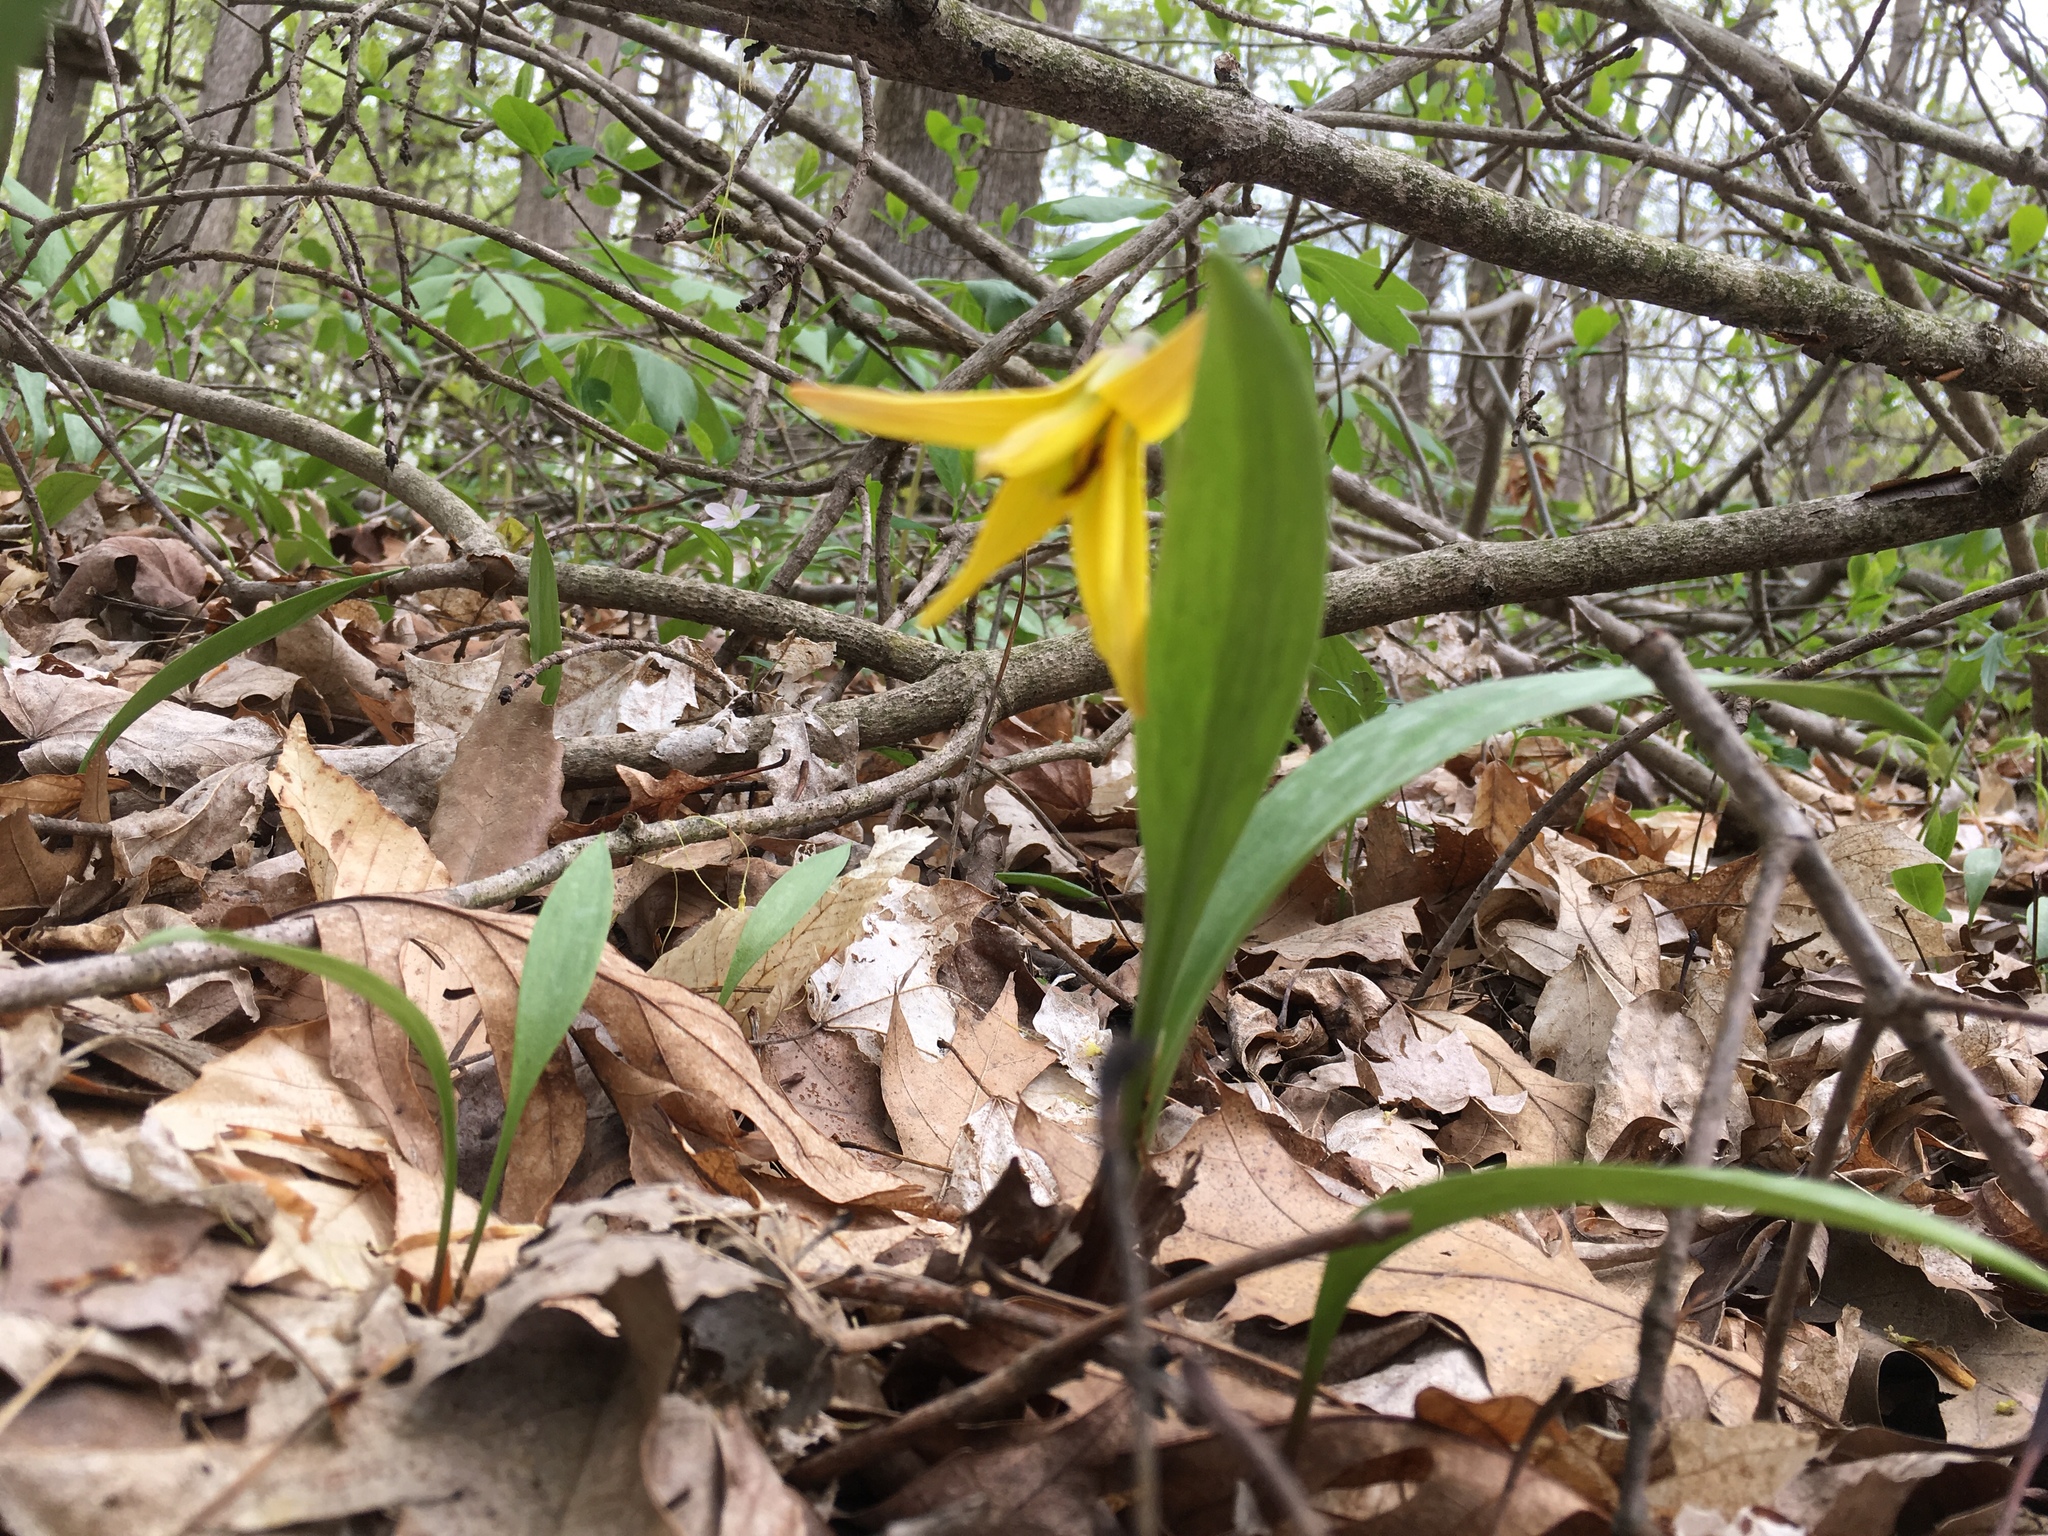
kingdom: Plantae
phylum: Tracheophyta
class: Liliopsida
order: Liliales
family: Liliaceae
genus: Erythronium
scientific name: Erythronium americanum
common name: Yellow adder's-tongue
